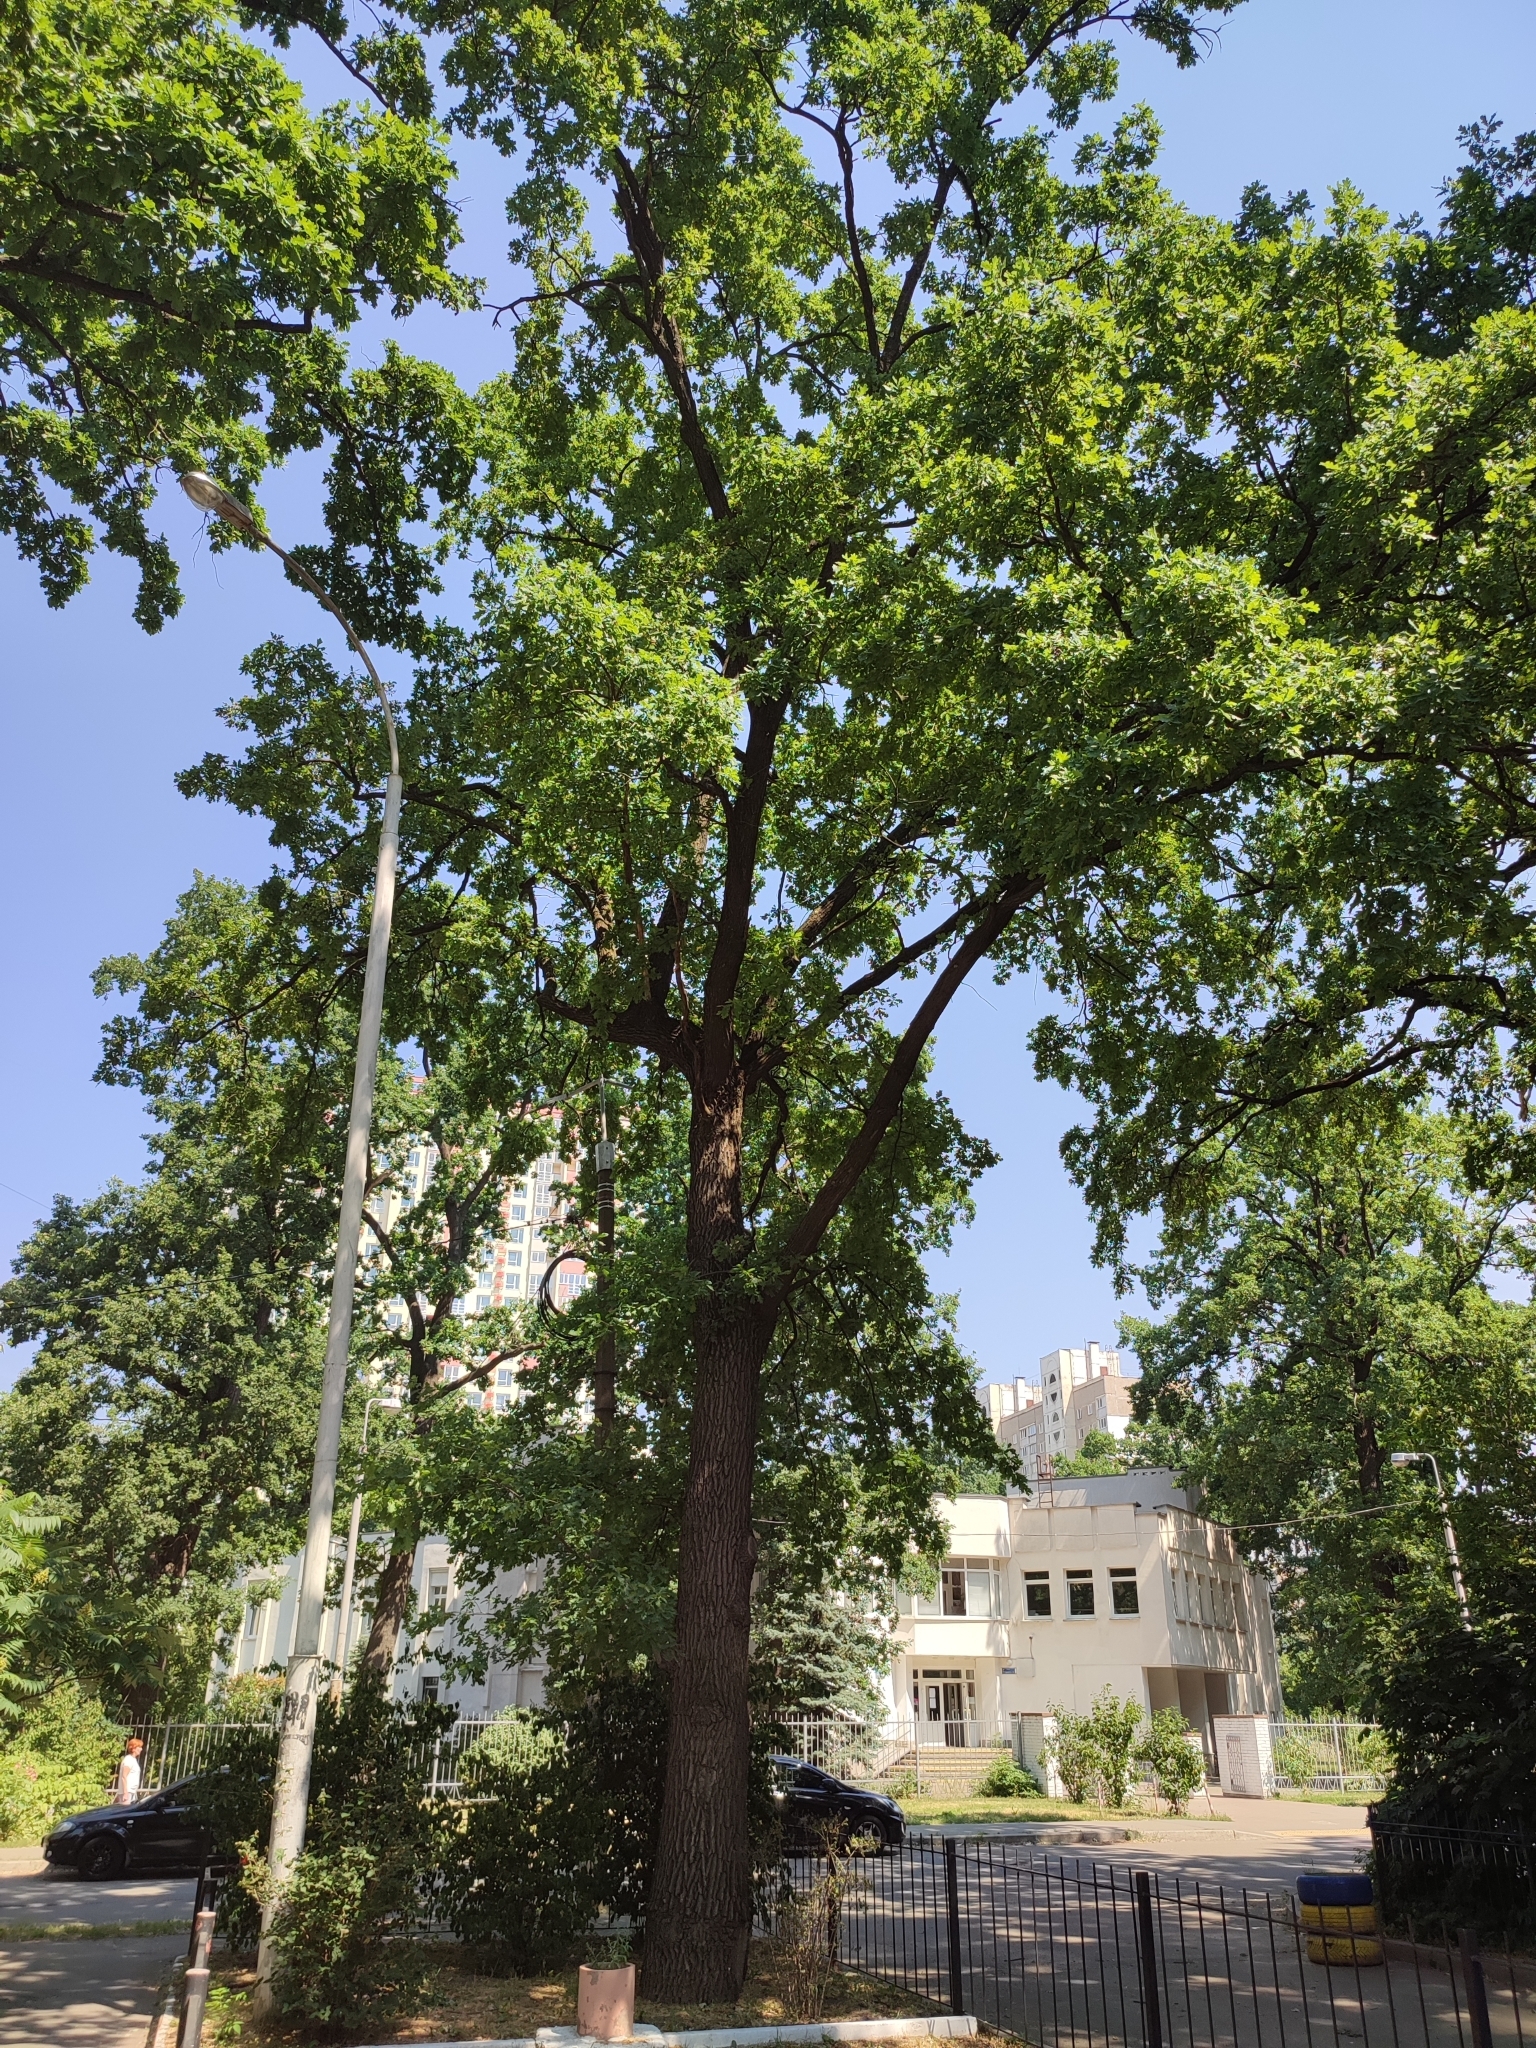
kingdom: Plantae
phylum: Tracheophyta
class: Magnoliopsida
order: Fagales
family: Fagaceae
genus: Quercus
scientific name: Quercus robur
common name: Pedunculate oak
